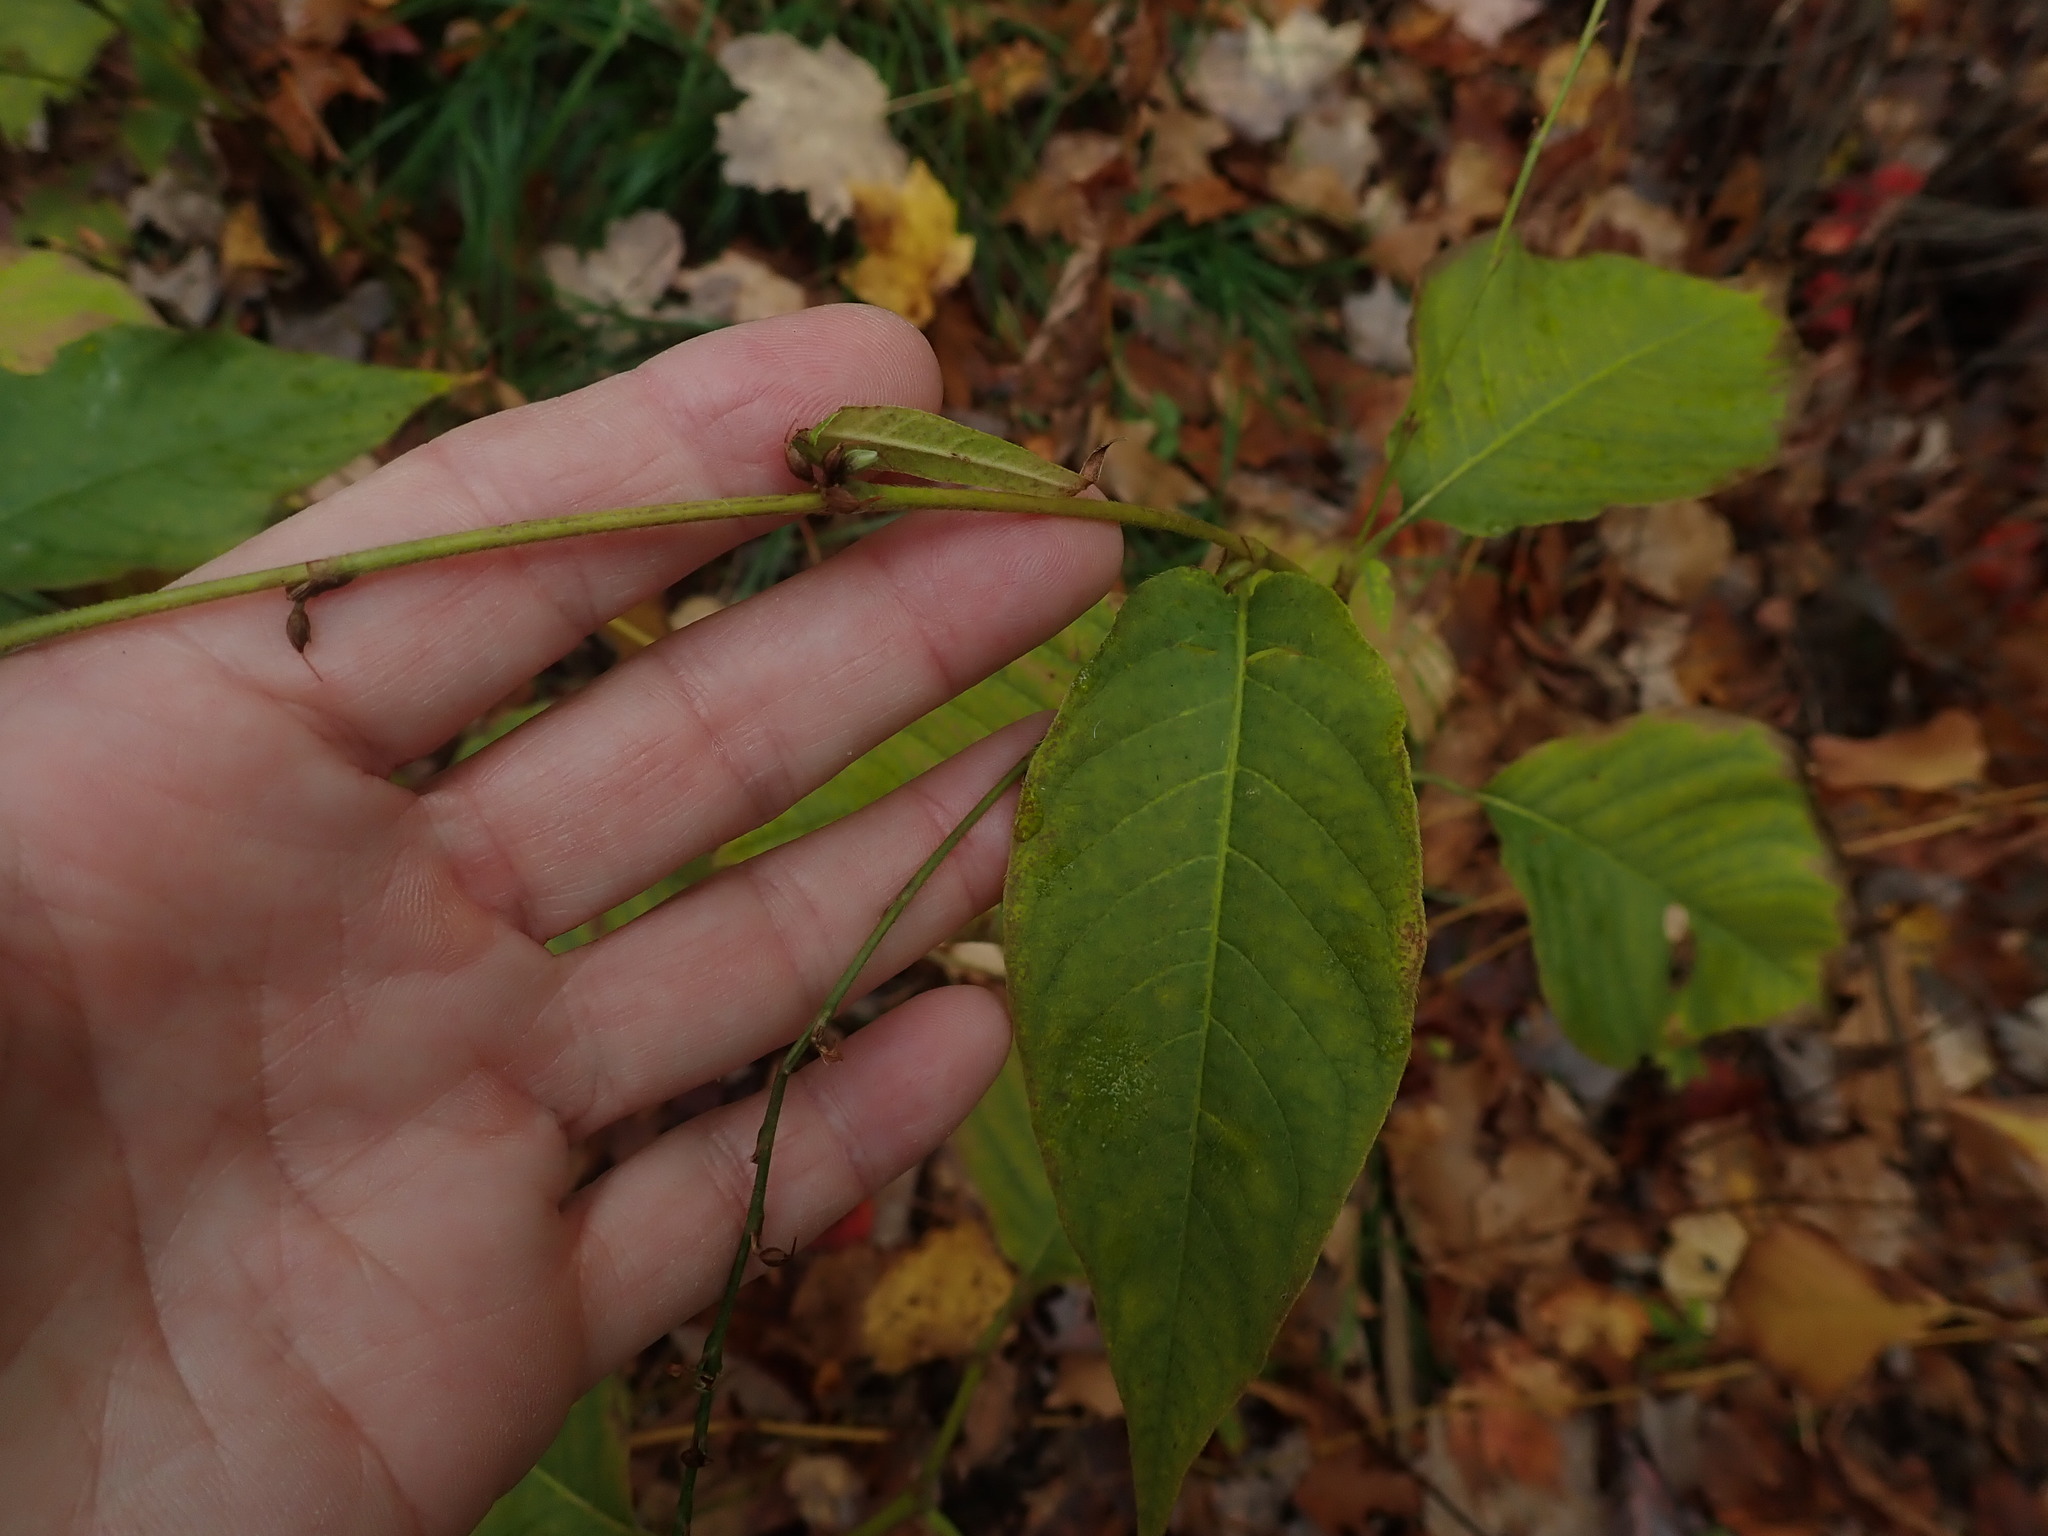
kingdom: Plantae
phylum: Tracheophyta
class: Magnoliopsida
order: Caryophyllales
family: Polygonaceae
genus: Persicaria
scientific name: Persicaria virginiana
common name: Jumpseed
